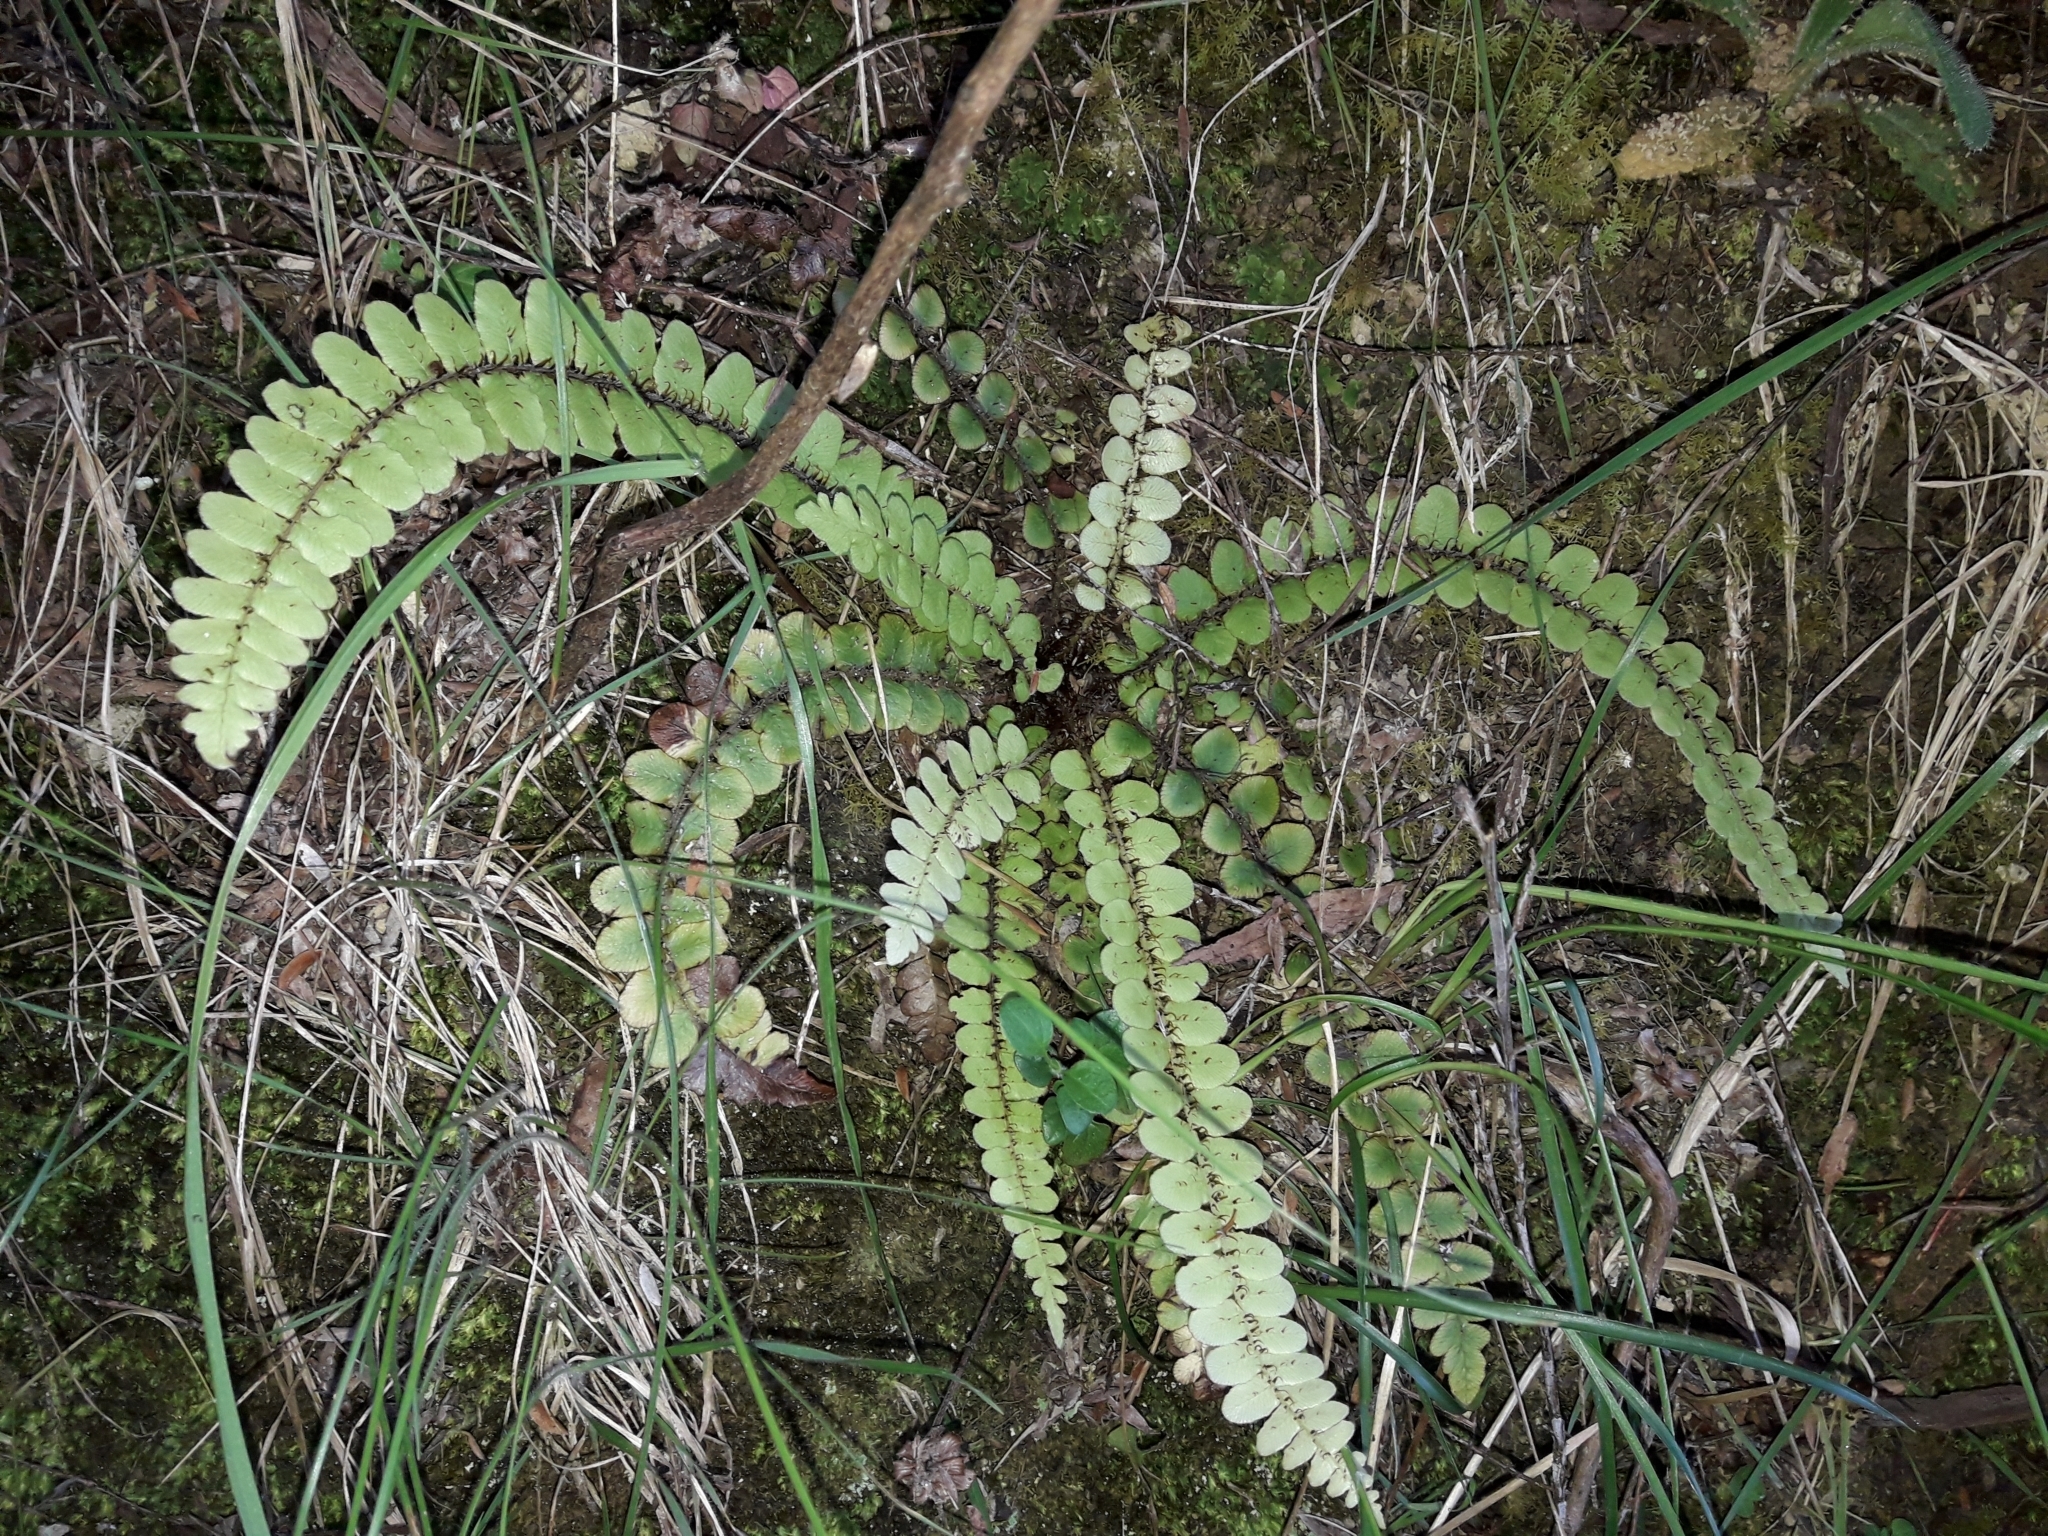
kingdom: Plantae
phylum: Tracheophyta
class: Polypodiopsida
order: Polypodiales
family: Blechnaceae
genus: Cranfillia
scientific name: Cranfillia fluviatilis
